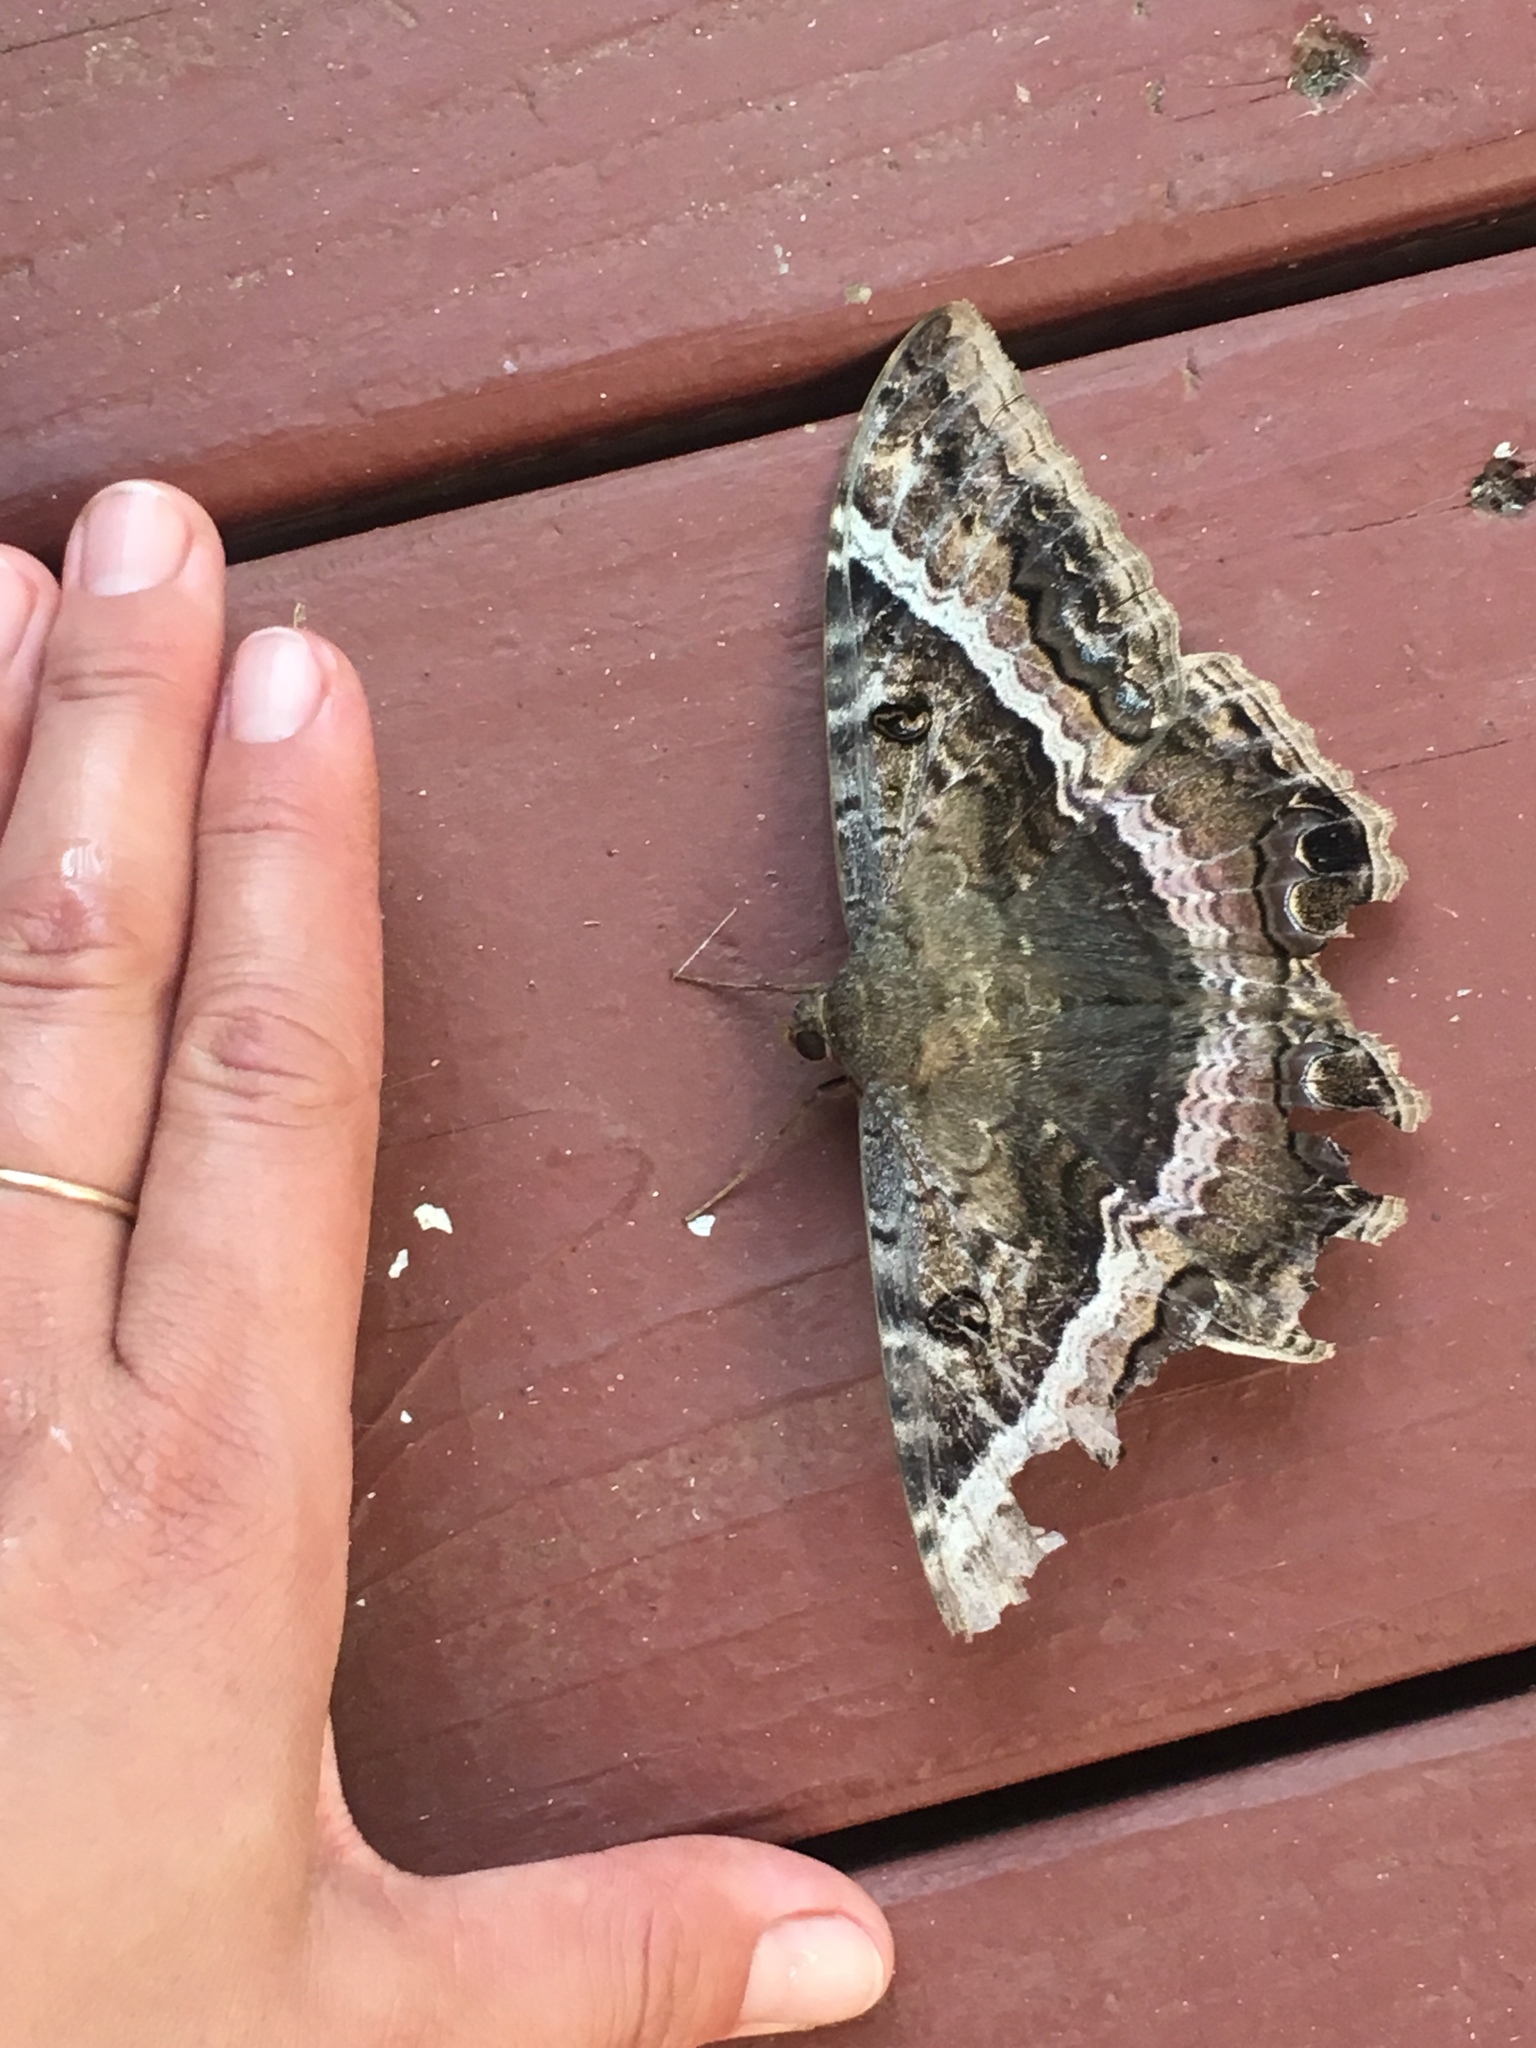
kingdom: Animalia
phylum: Arthropoda
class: Insecta
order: Lepidoptera
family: Erebidae
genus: Ascalapha
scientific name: Ascalapha odorata
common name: Black witch
